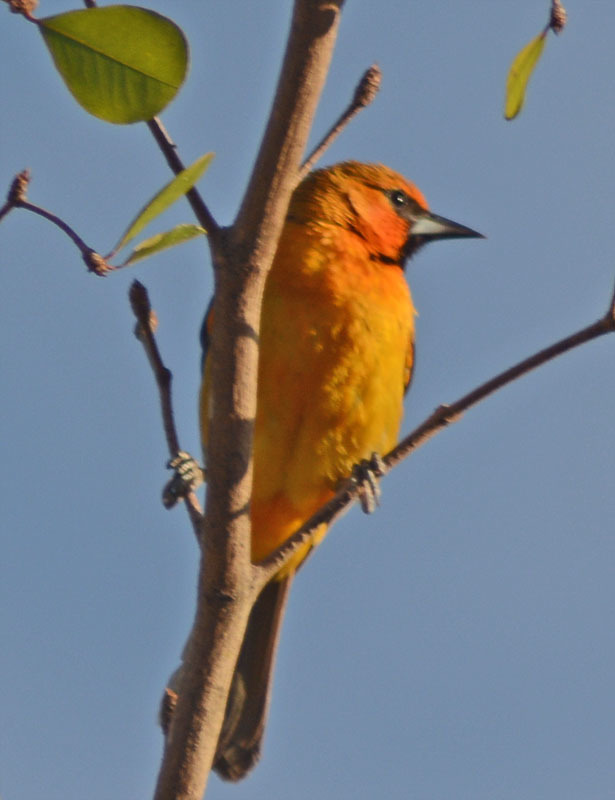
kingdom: Animalia
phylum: Chordata
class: Aves
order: Passeriformes
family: Icteridae
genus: Icterus
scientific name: Icterus pustulatus
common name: Streak-backed oriole
